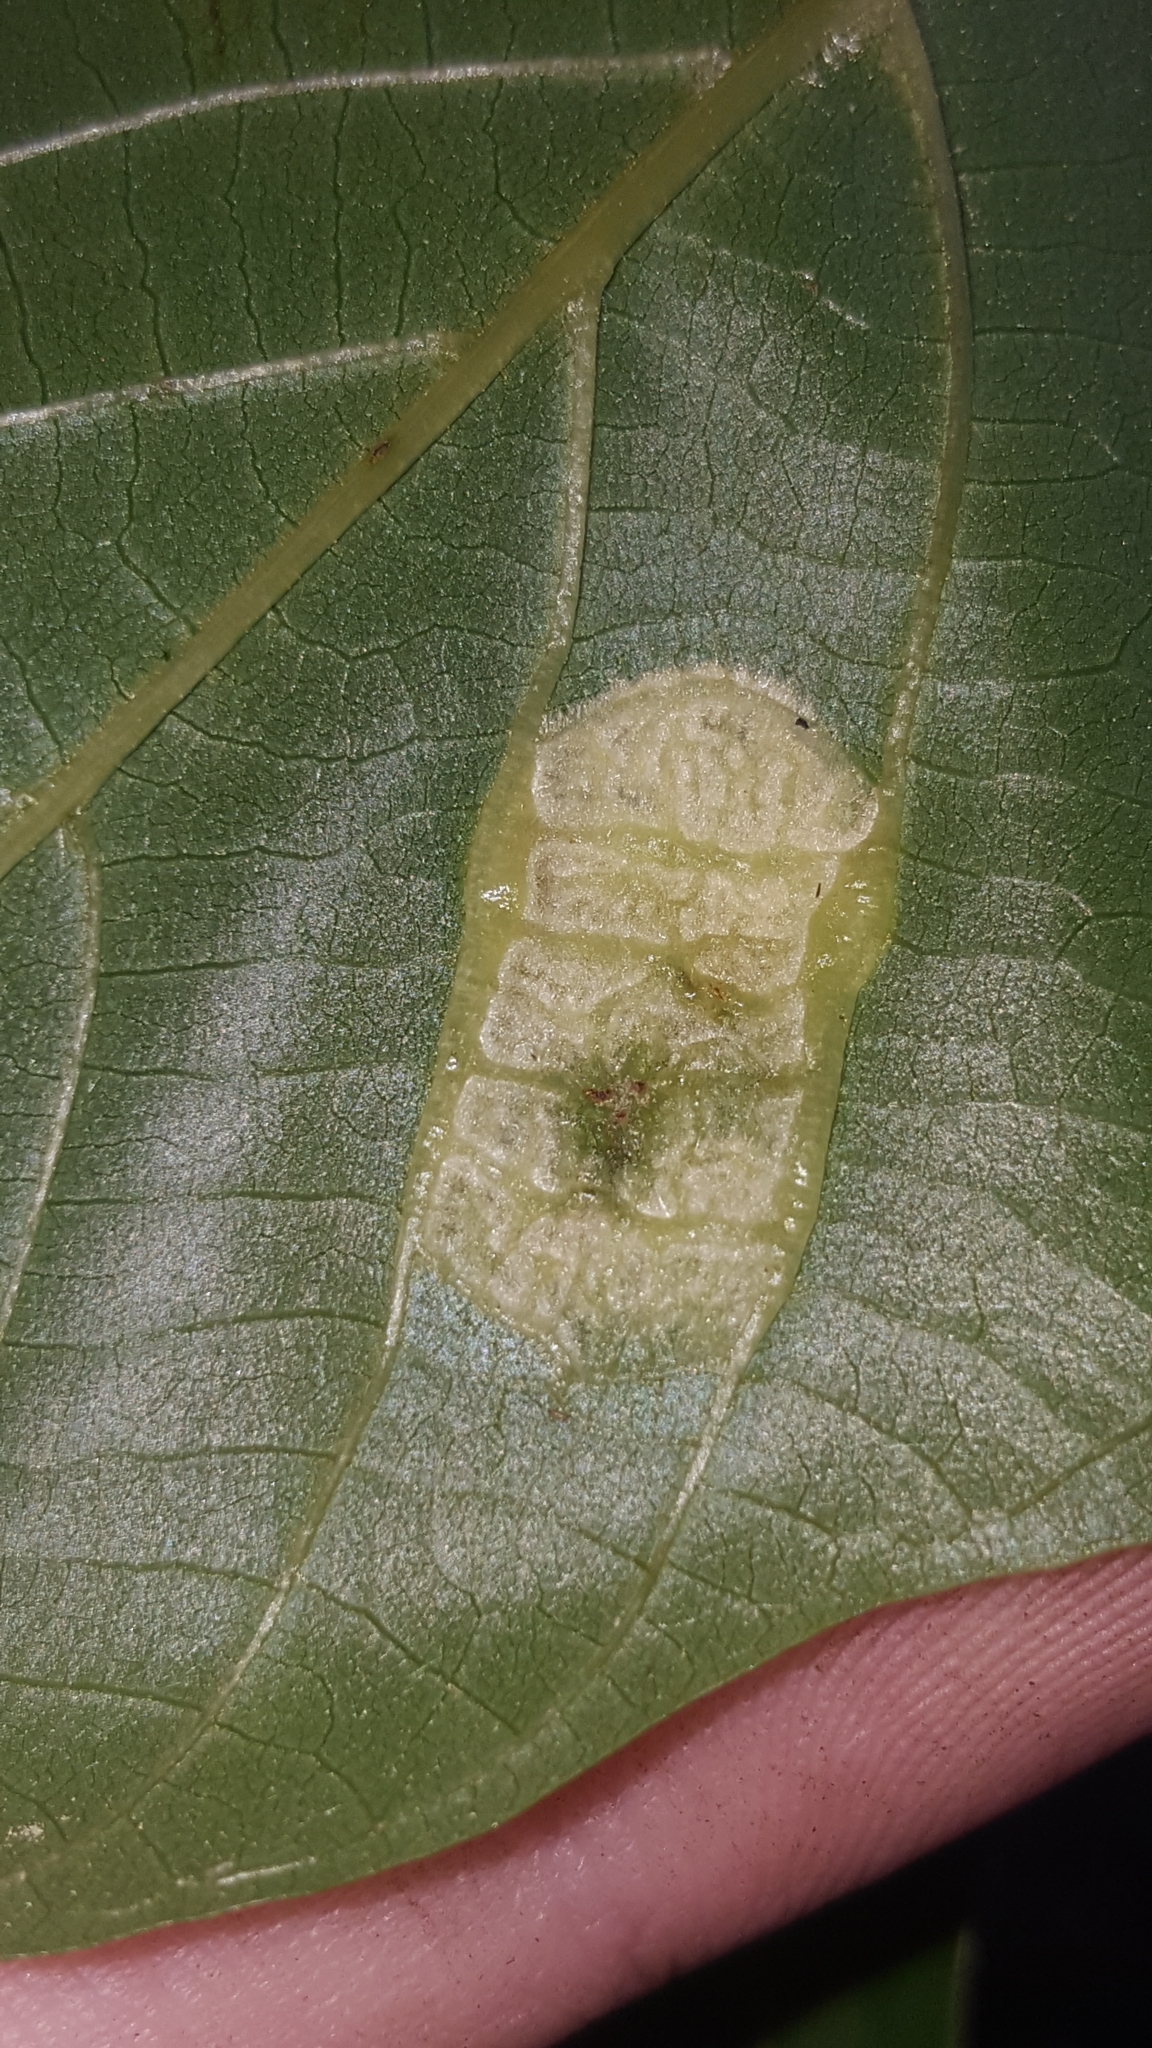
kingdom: Animalia
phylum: Arthropoda
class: Arachnida
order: Trombidiformes
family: Eriophyidae
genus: Aceria
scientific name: Aceria erinea
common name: Persian walnut erineum mite
